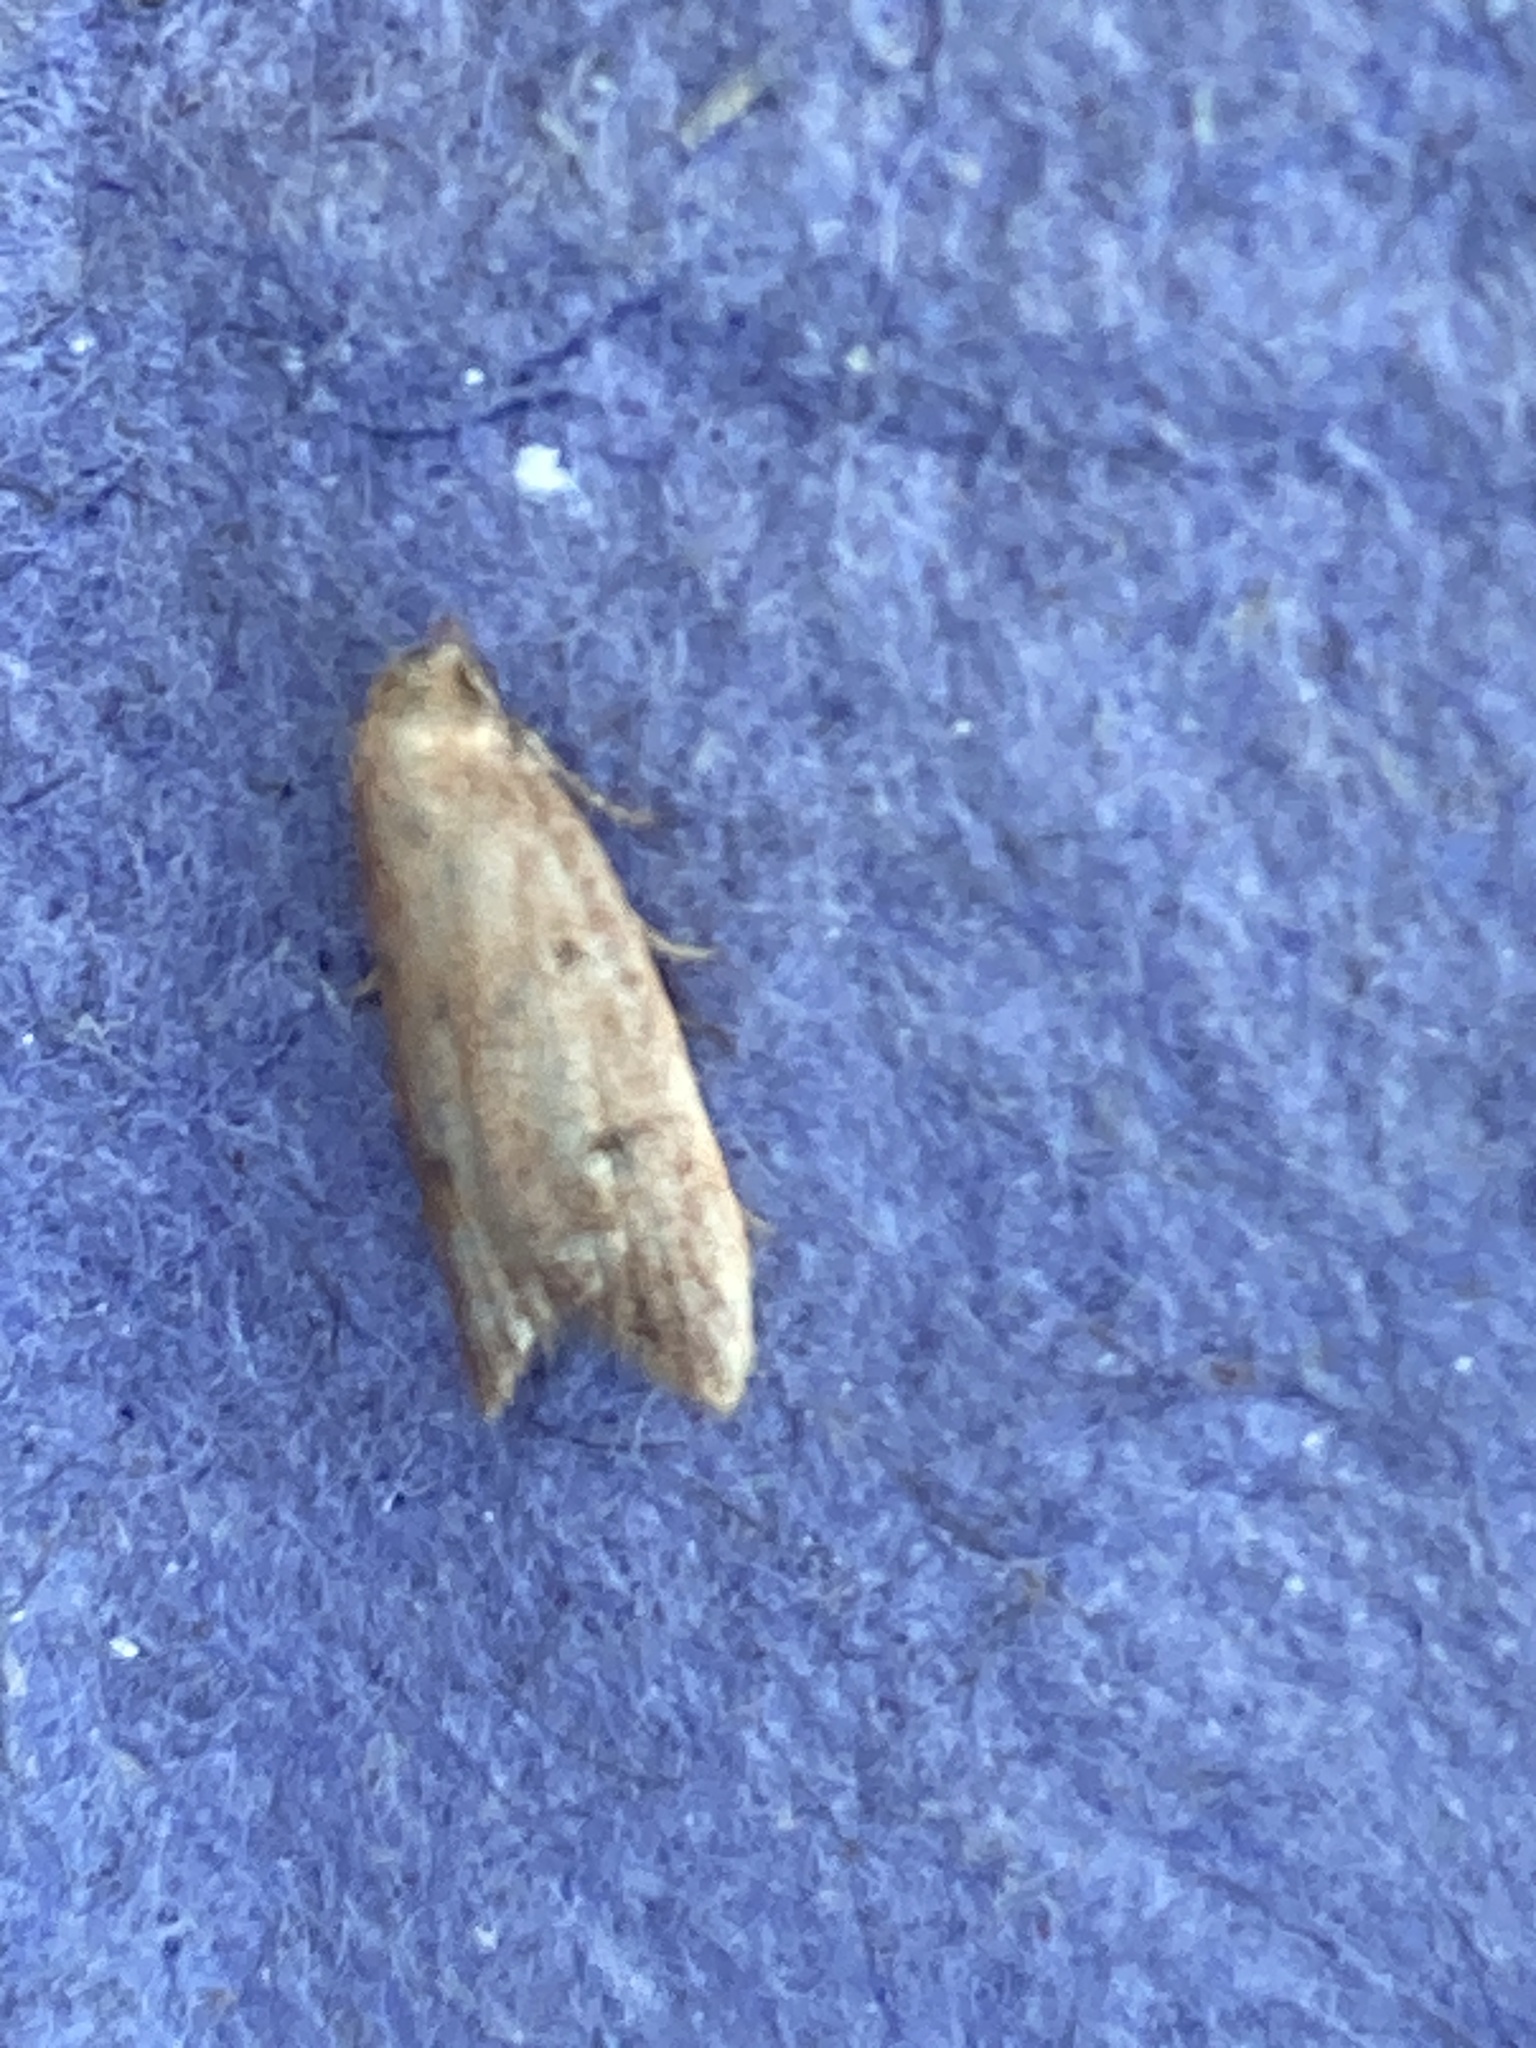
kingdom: Animalia
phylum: Arthropoda
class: Insecta
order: Lepidoptera
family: Oecophoridae
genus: Tachystola
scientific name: Tachystola acroxantha
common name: Ruddy streak
